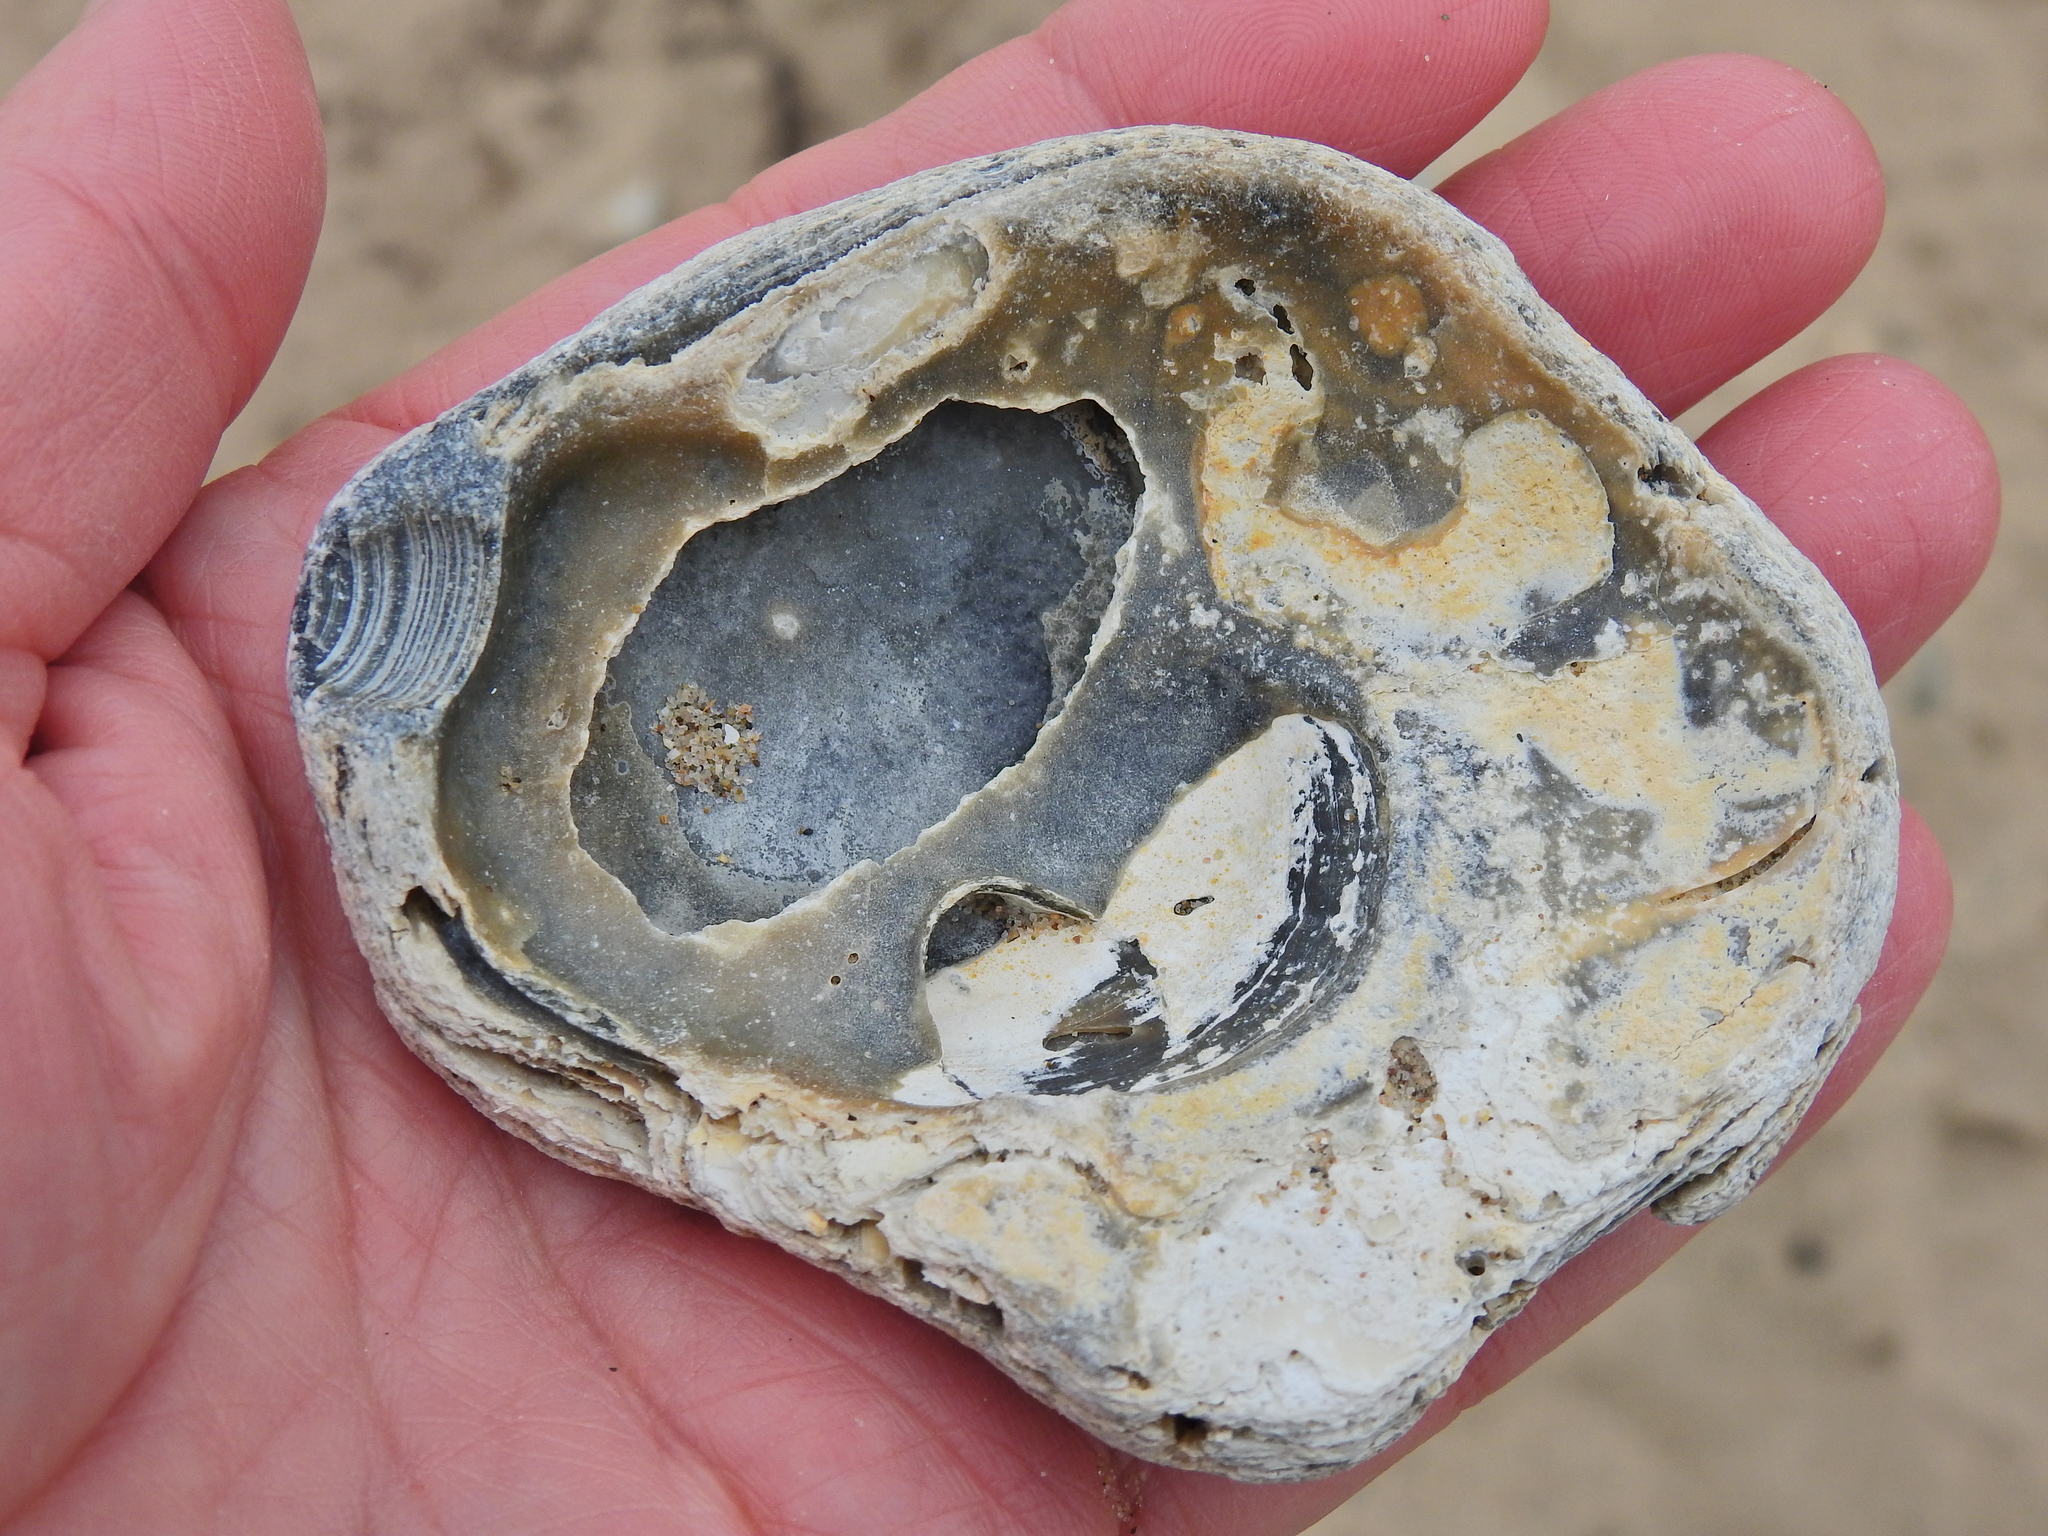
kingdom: Animalia
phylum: Mollusca
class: Bivalvia
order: Ostreida
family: Ostreidae
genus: Ostrea
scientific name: Ostrea edulis
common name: Flat oyster
